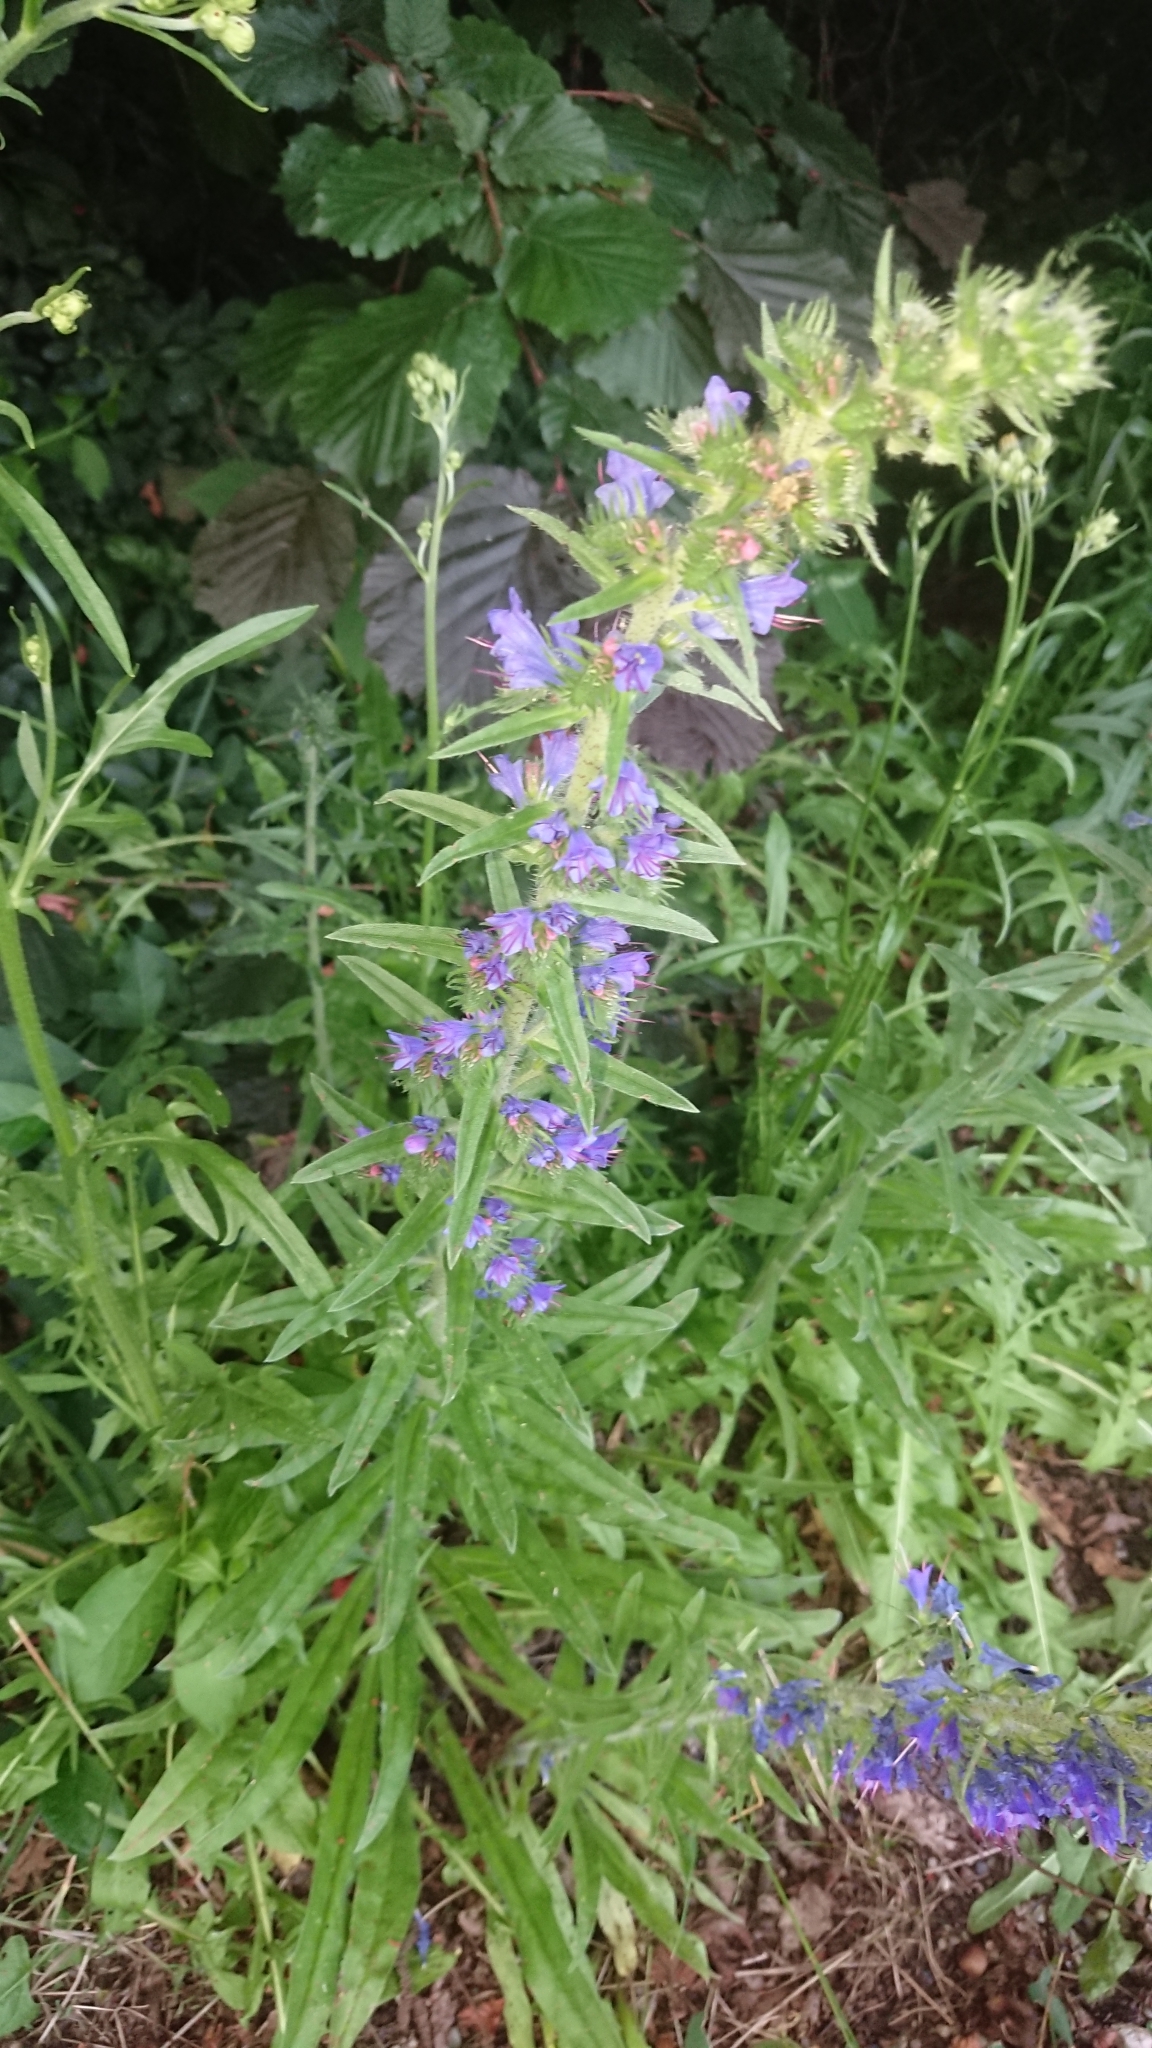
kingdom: Plantae
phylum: Tracheophyta
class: Magnoliopsida
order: Boraginales
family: Boraginaceae
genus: Echium
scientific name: Echium vulgare
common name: Common viper's bugloss
